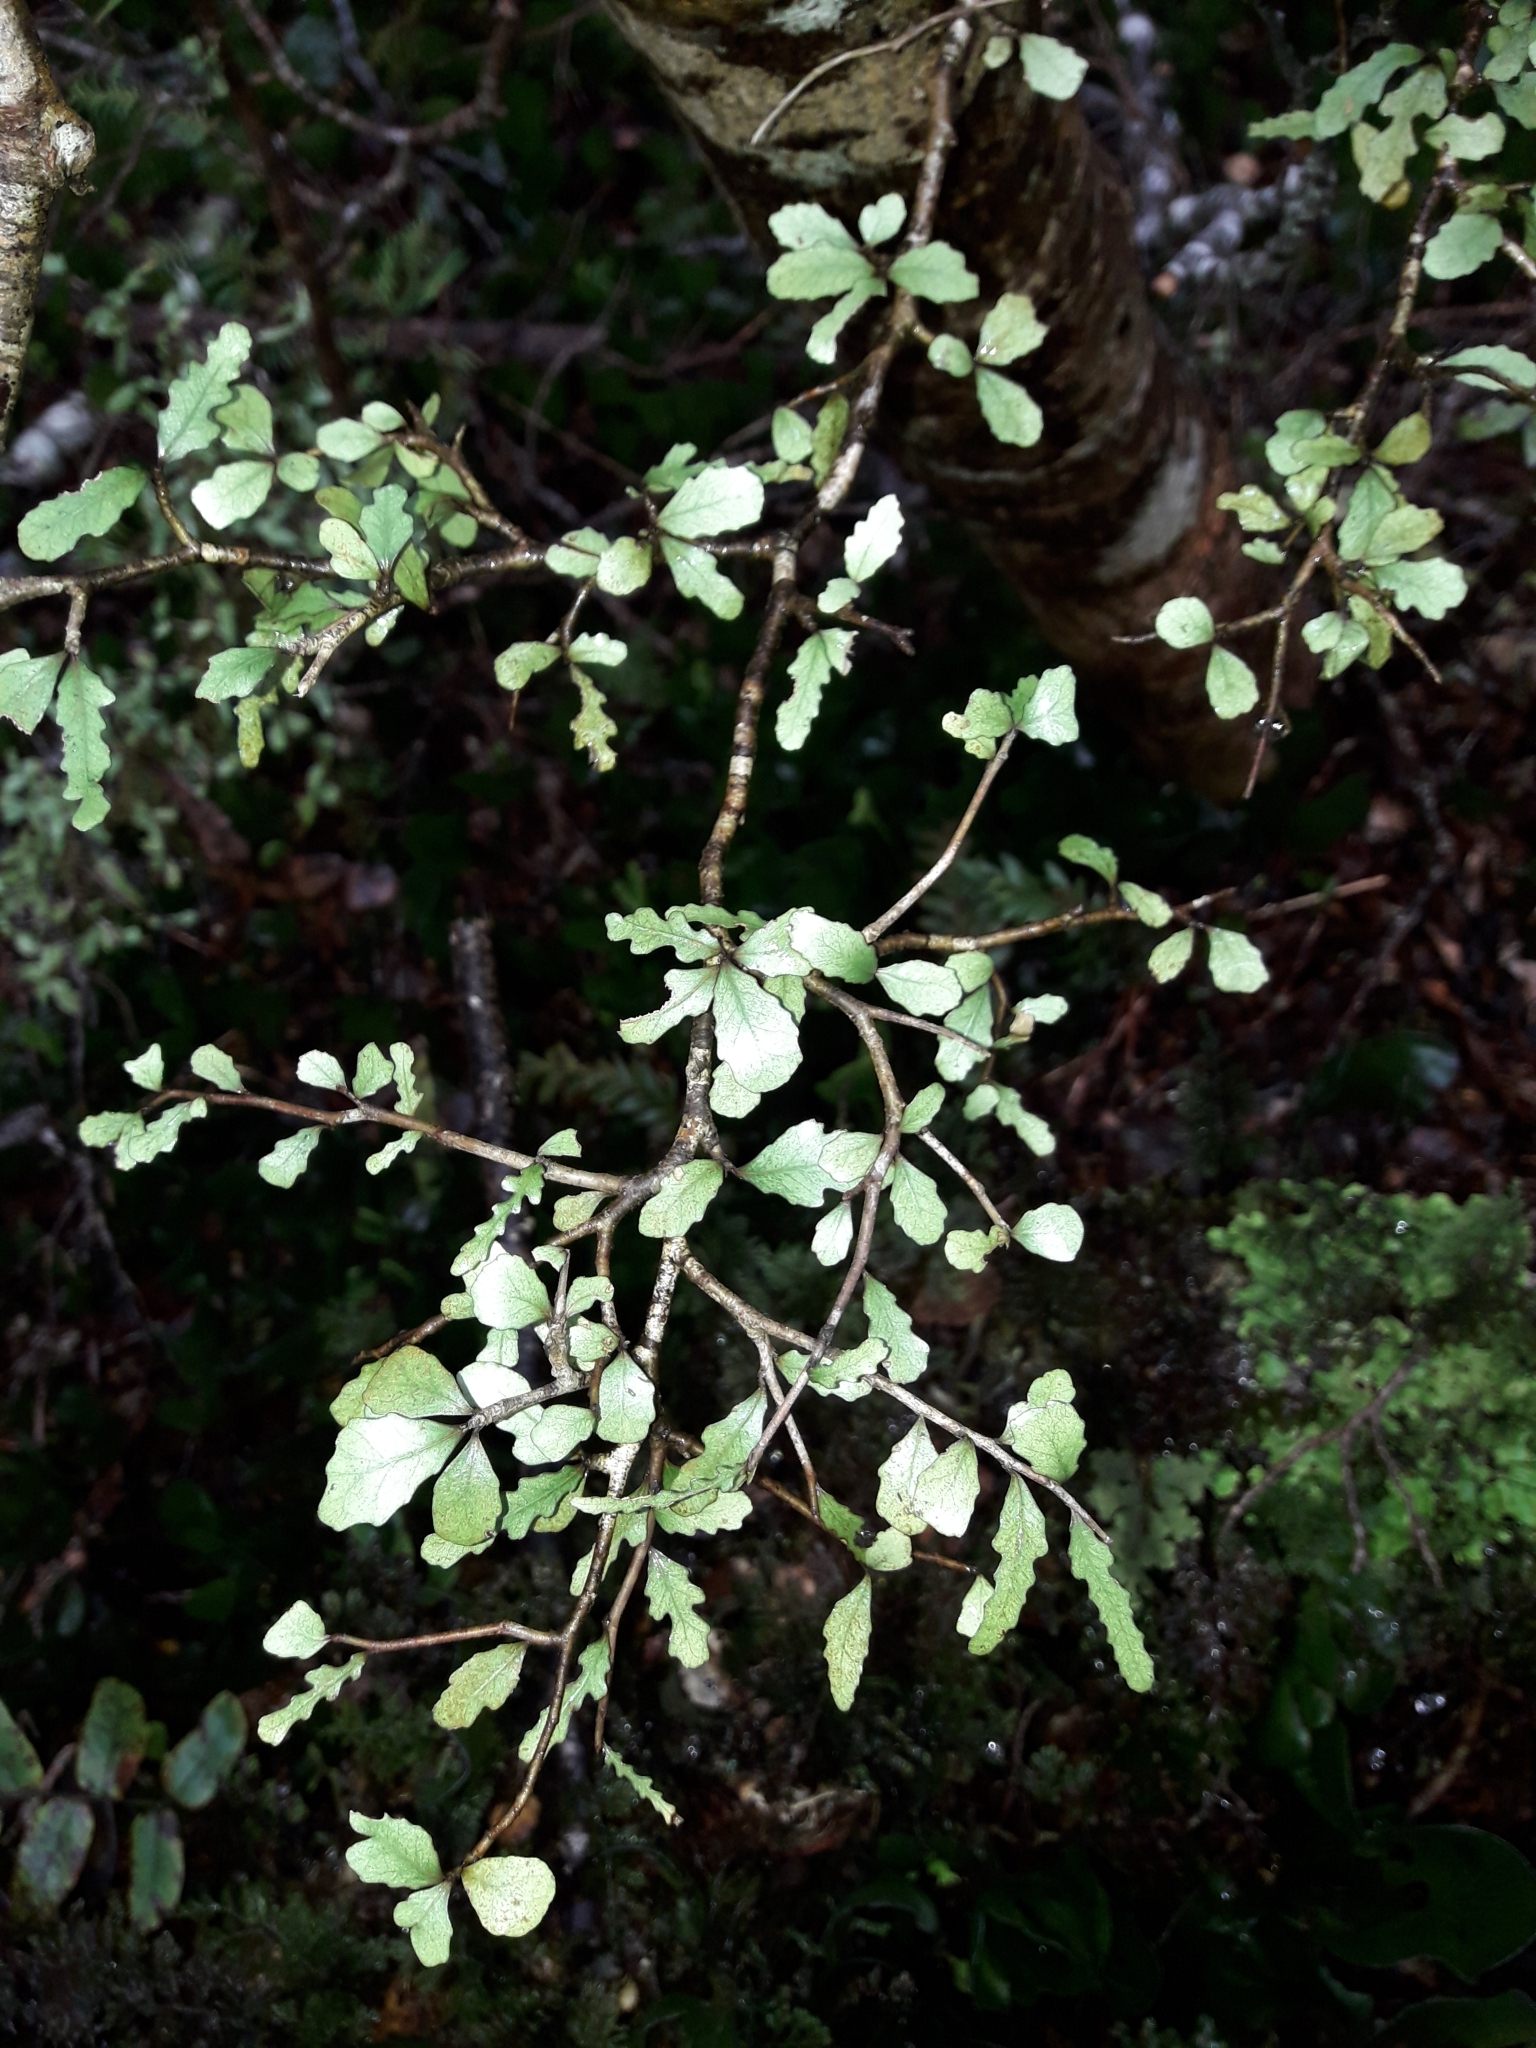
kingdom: Plantae
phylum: Tracheophyta
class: Magnoliopsida
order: Oxalidales
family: Elaeocarpaceae
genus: Elaeocarpus
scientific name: Elaeocarpus hookerianus
